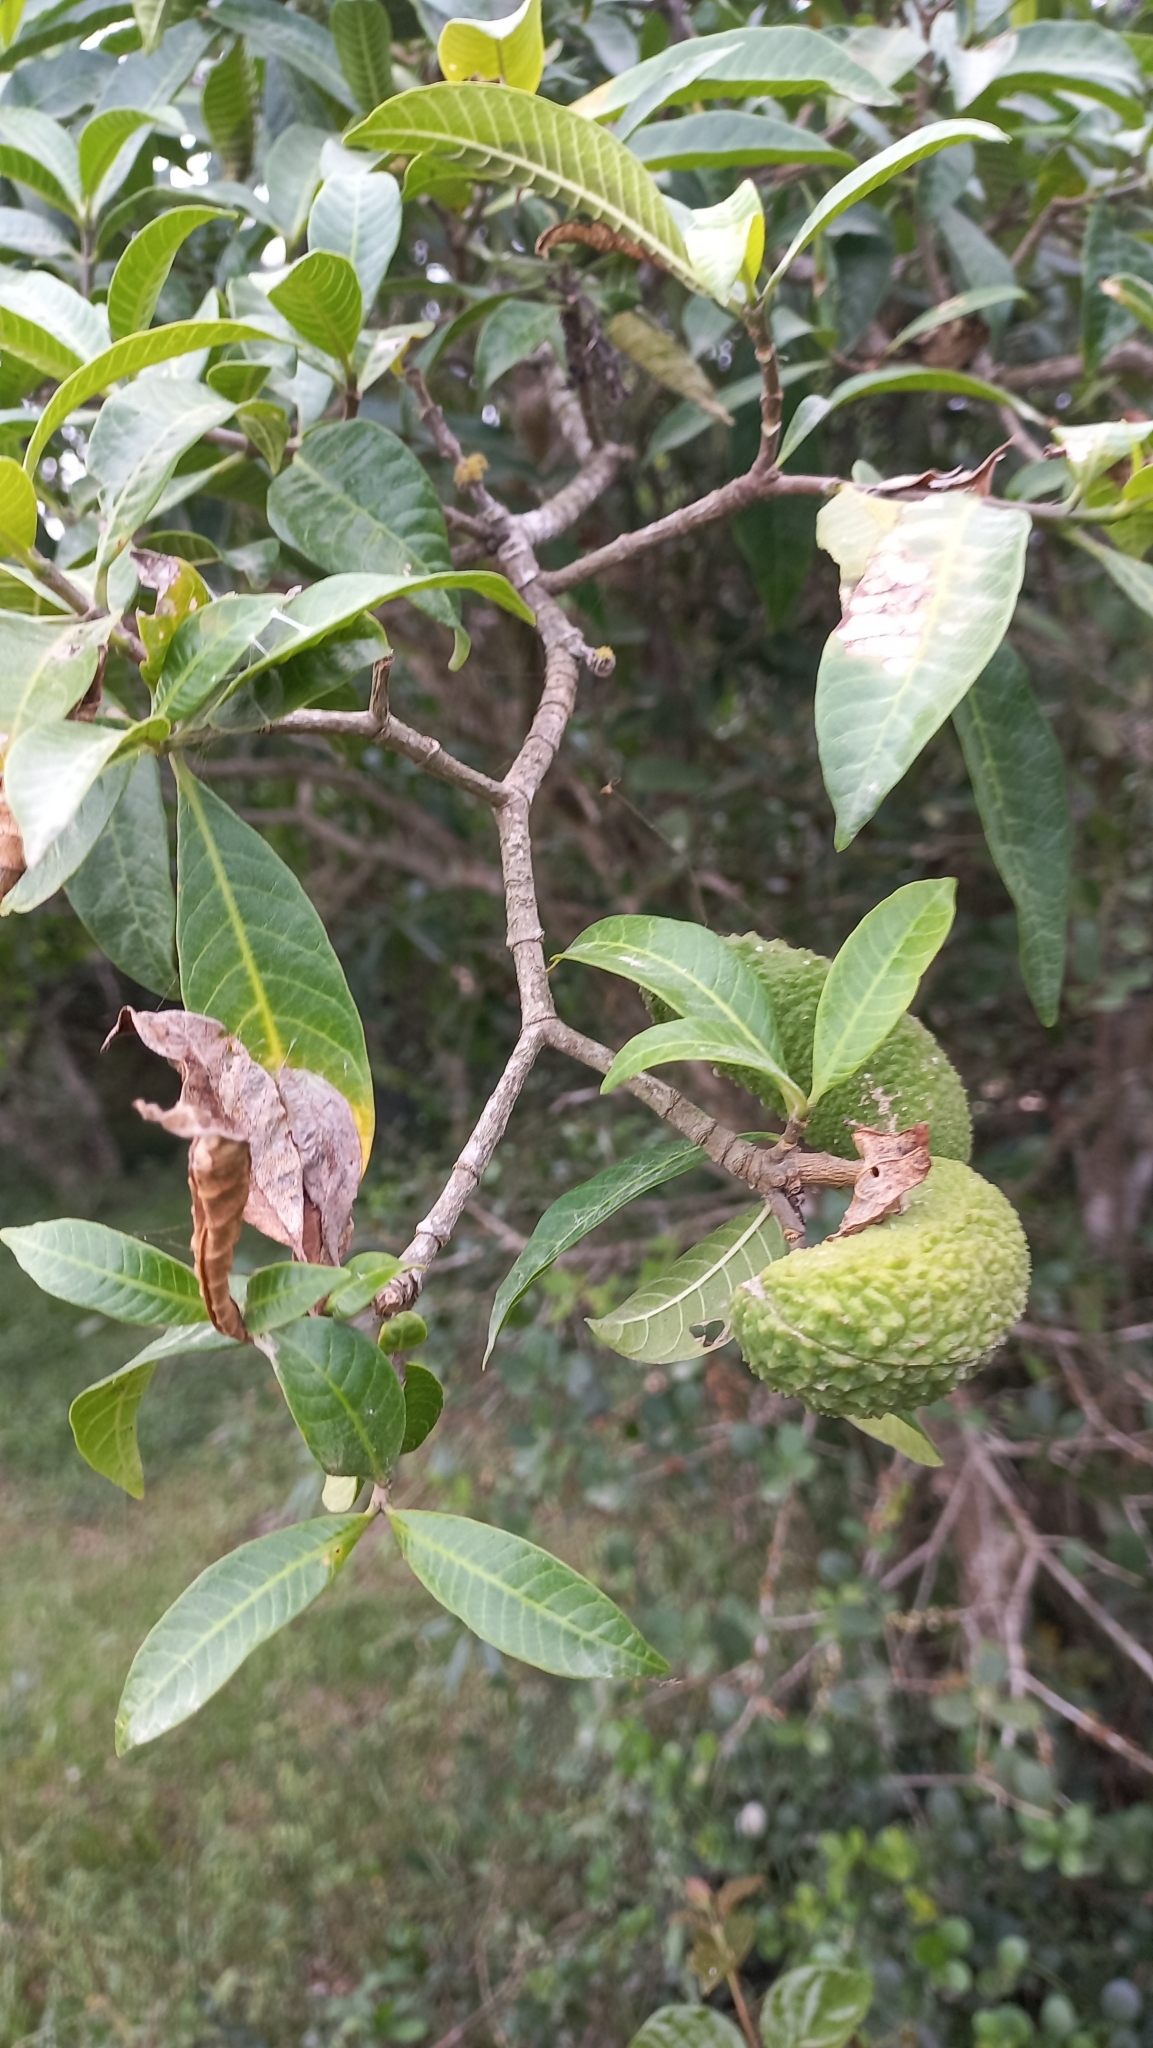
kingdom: Plantae
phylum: Tracheophyta
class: Magnoliopsida
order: Gentianales
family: Apocynaceae
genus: Tabernaemontana
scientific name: Tabernaemontana catharinensis
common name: Pinwheel-flower
